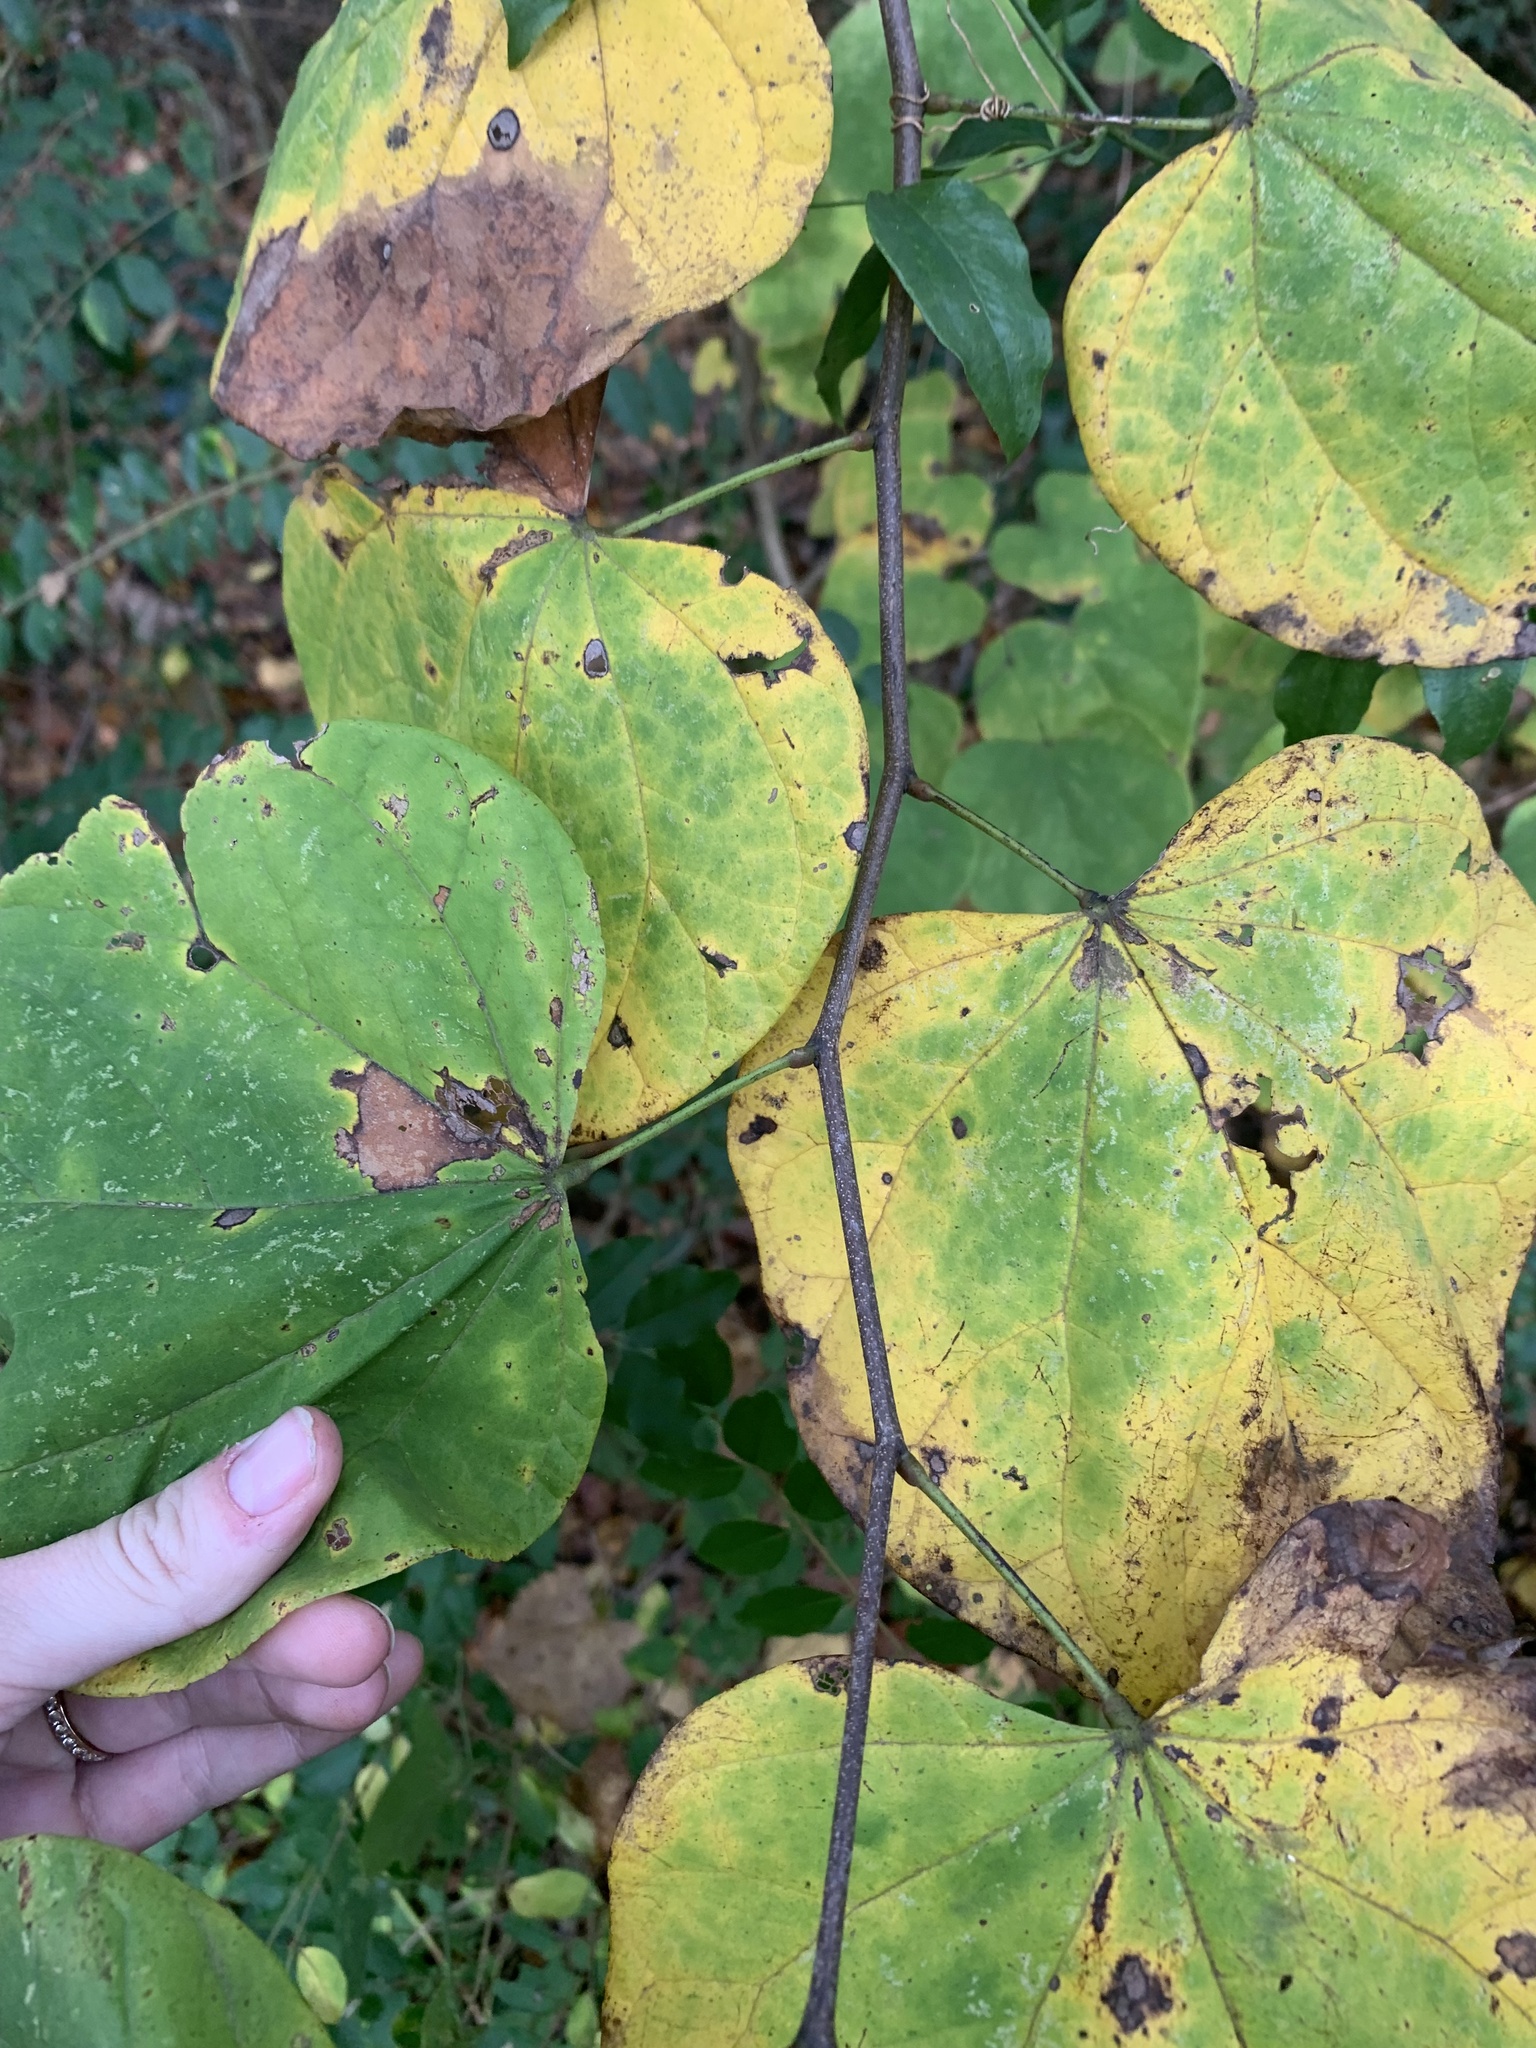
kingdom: Plantae
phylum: Tracheophyta
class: Magnoliopsida
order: Fabales
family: Fabaceae
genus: Cercis
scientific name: Cercis canadensis
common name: Eastern redbud
